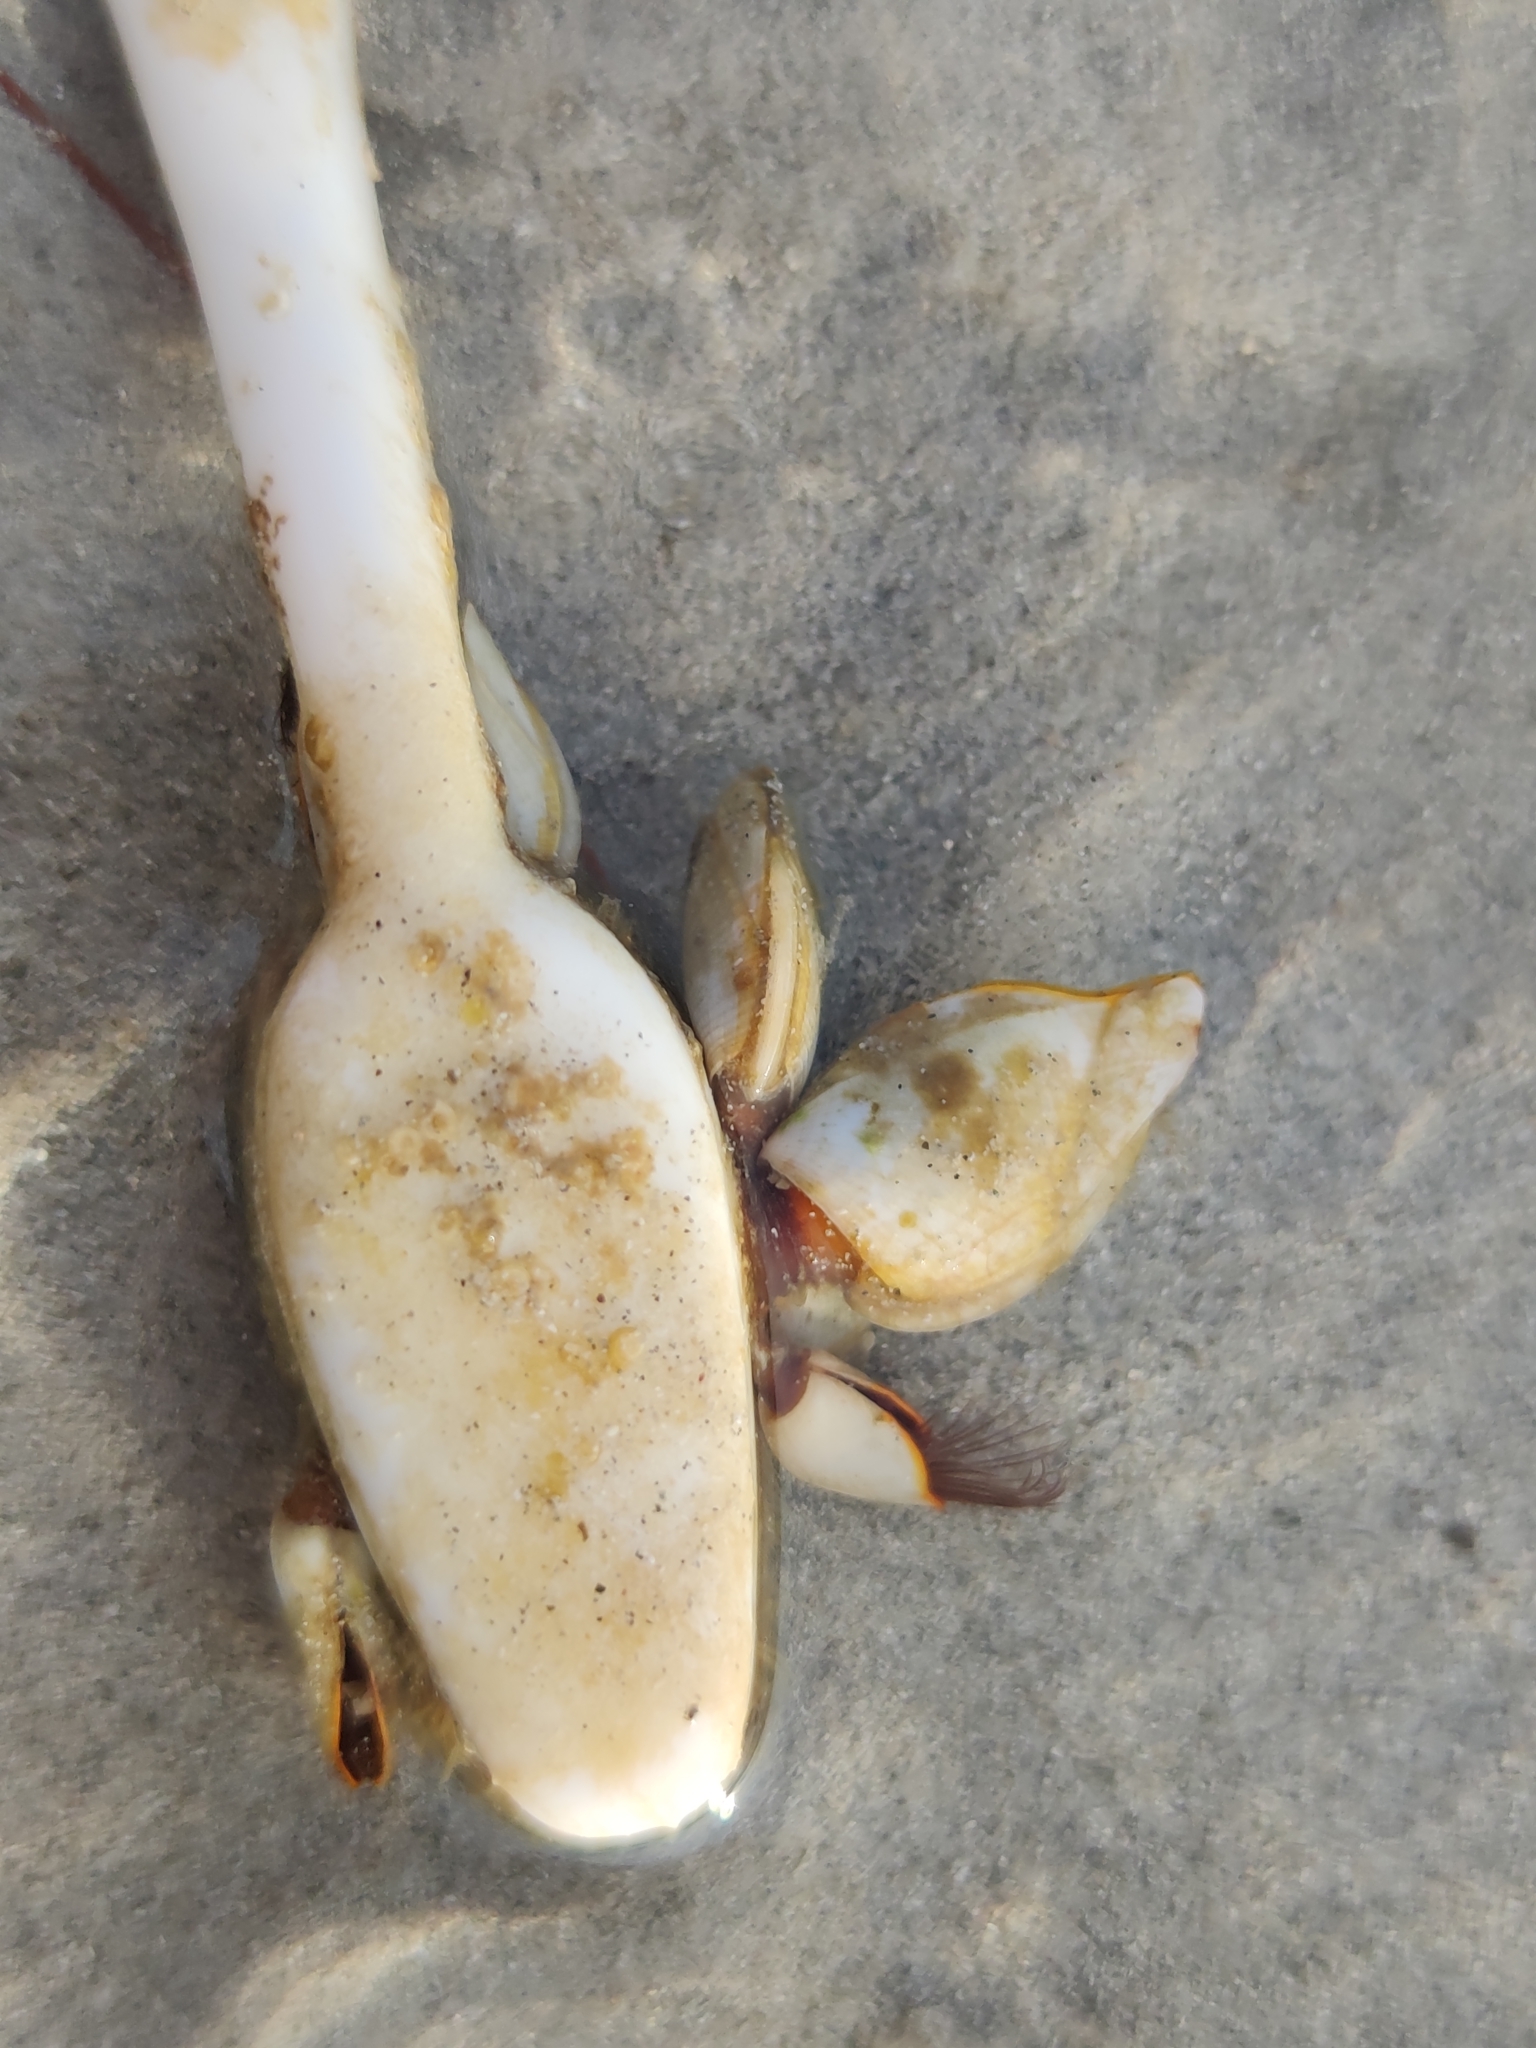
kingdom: Animalia
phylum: Arthropoda
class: Maxillopoda
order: Pedunculata
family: Lepadidae
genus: Lepas
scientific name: Lepas anserifera
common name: Goose barnacle
